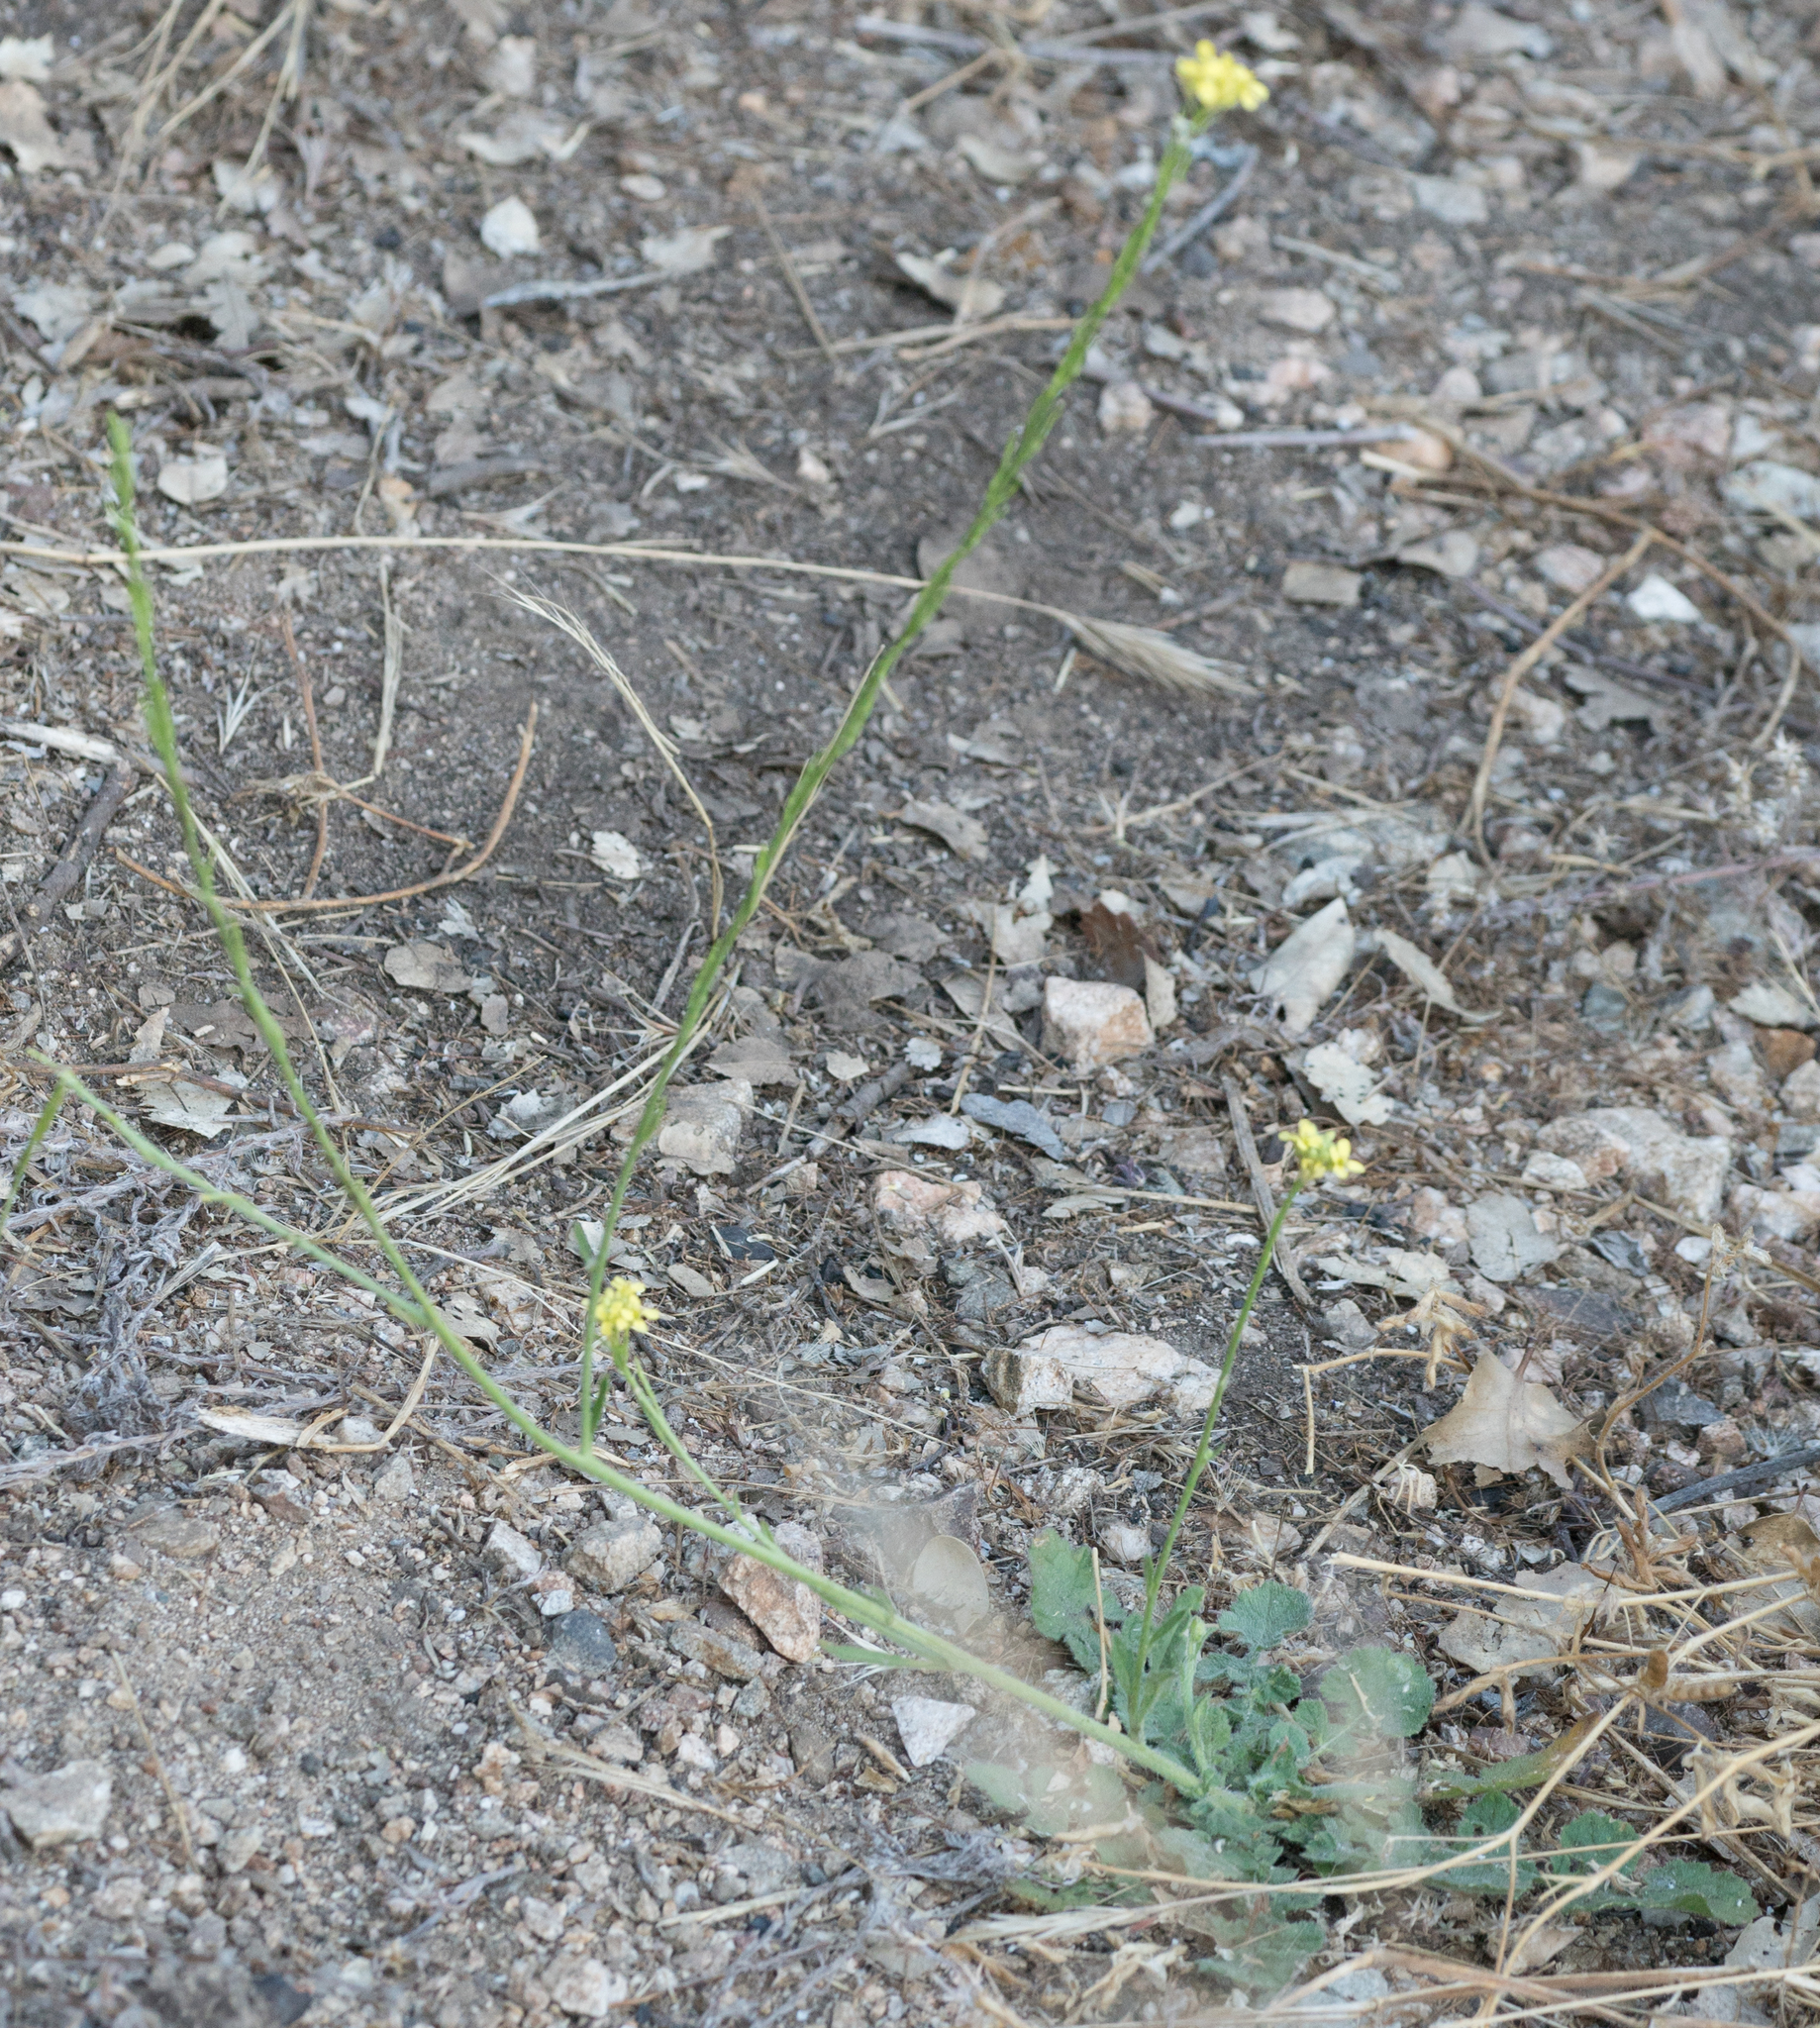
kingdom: Plantae
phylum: Tracheophyta
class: Magnoliopsida
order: Brassicales
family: Brassicaceae
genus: Hirschfeldia
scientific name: Hirschfeldia incana
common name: Hoary mustard
